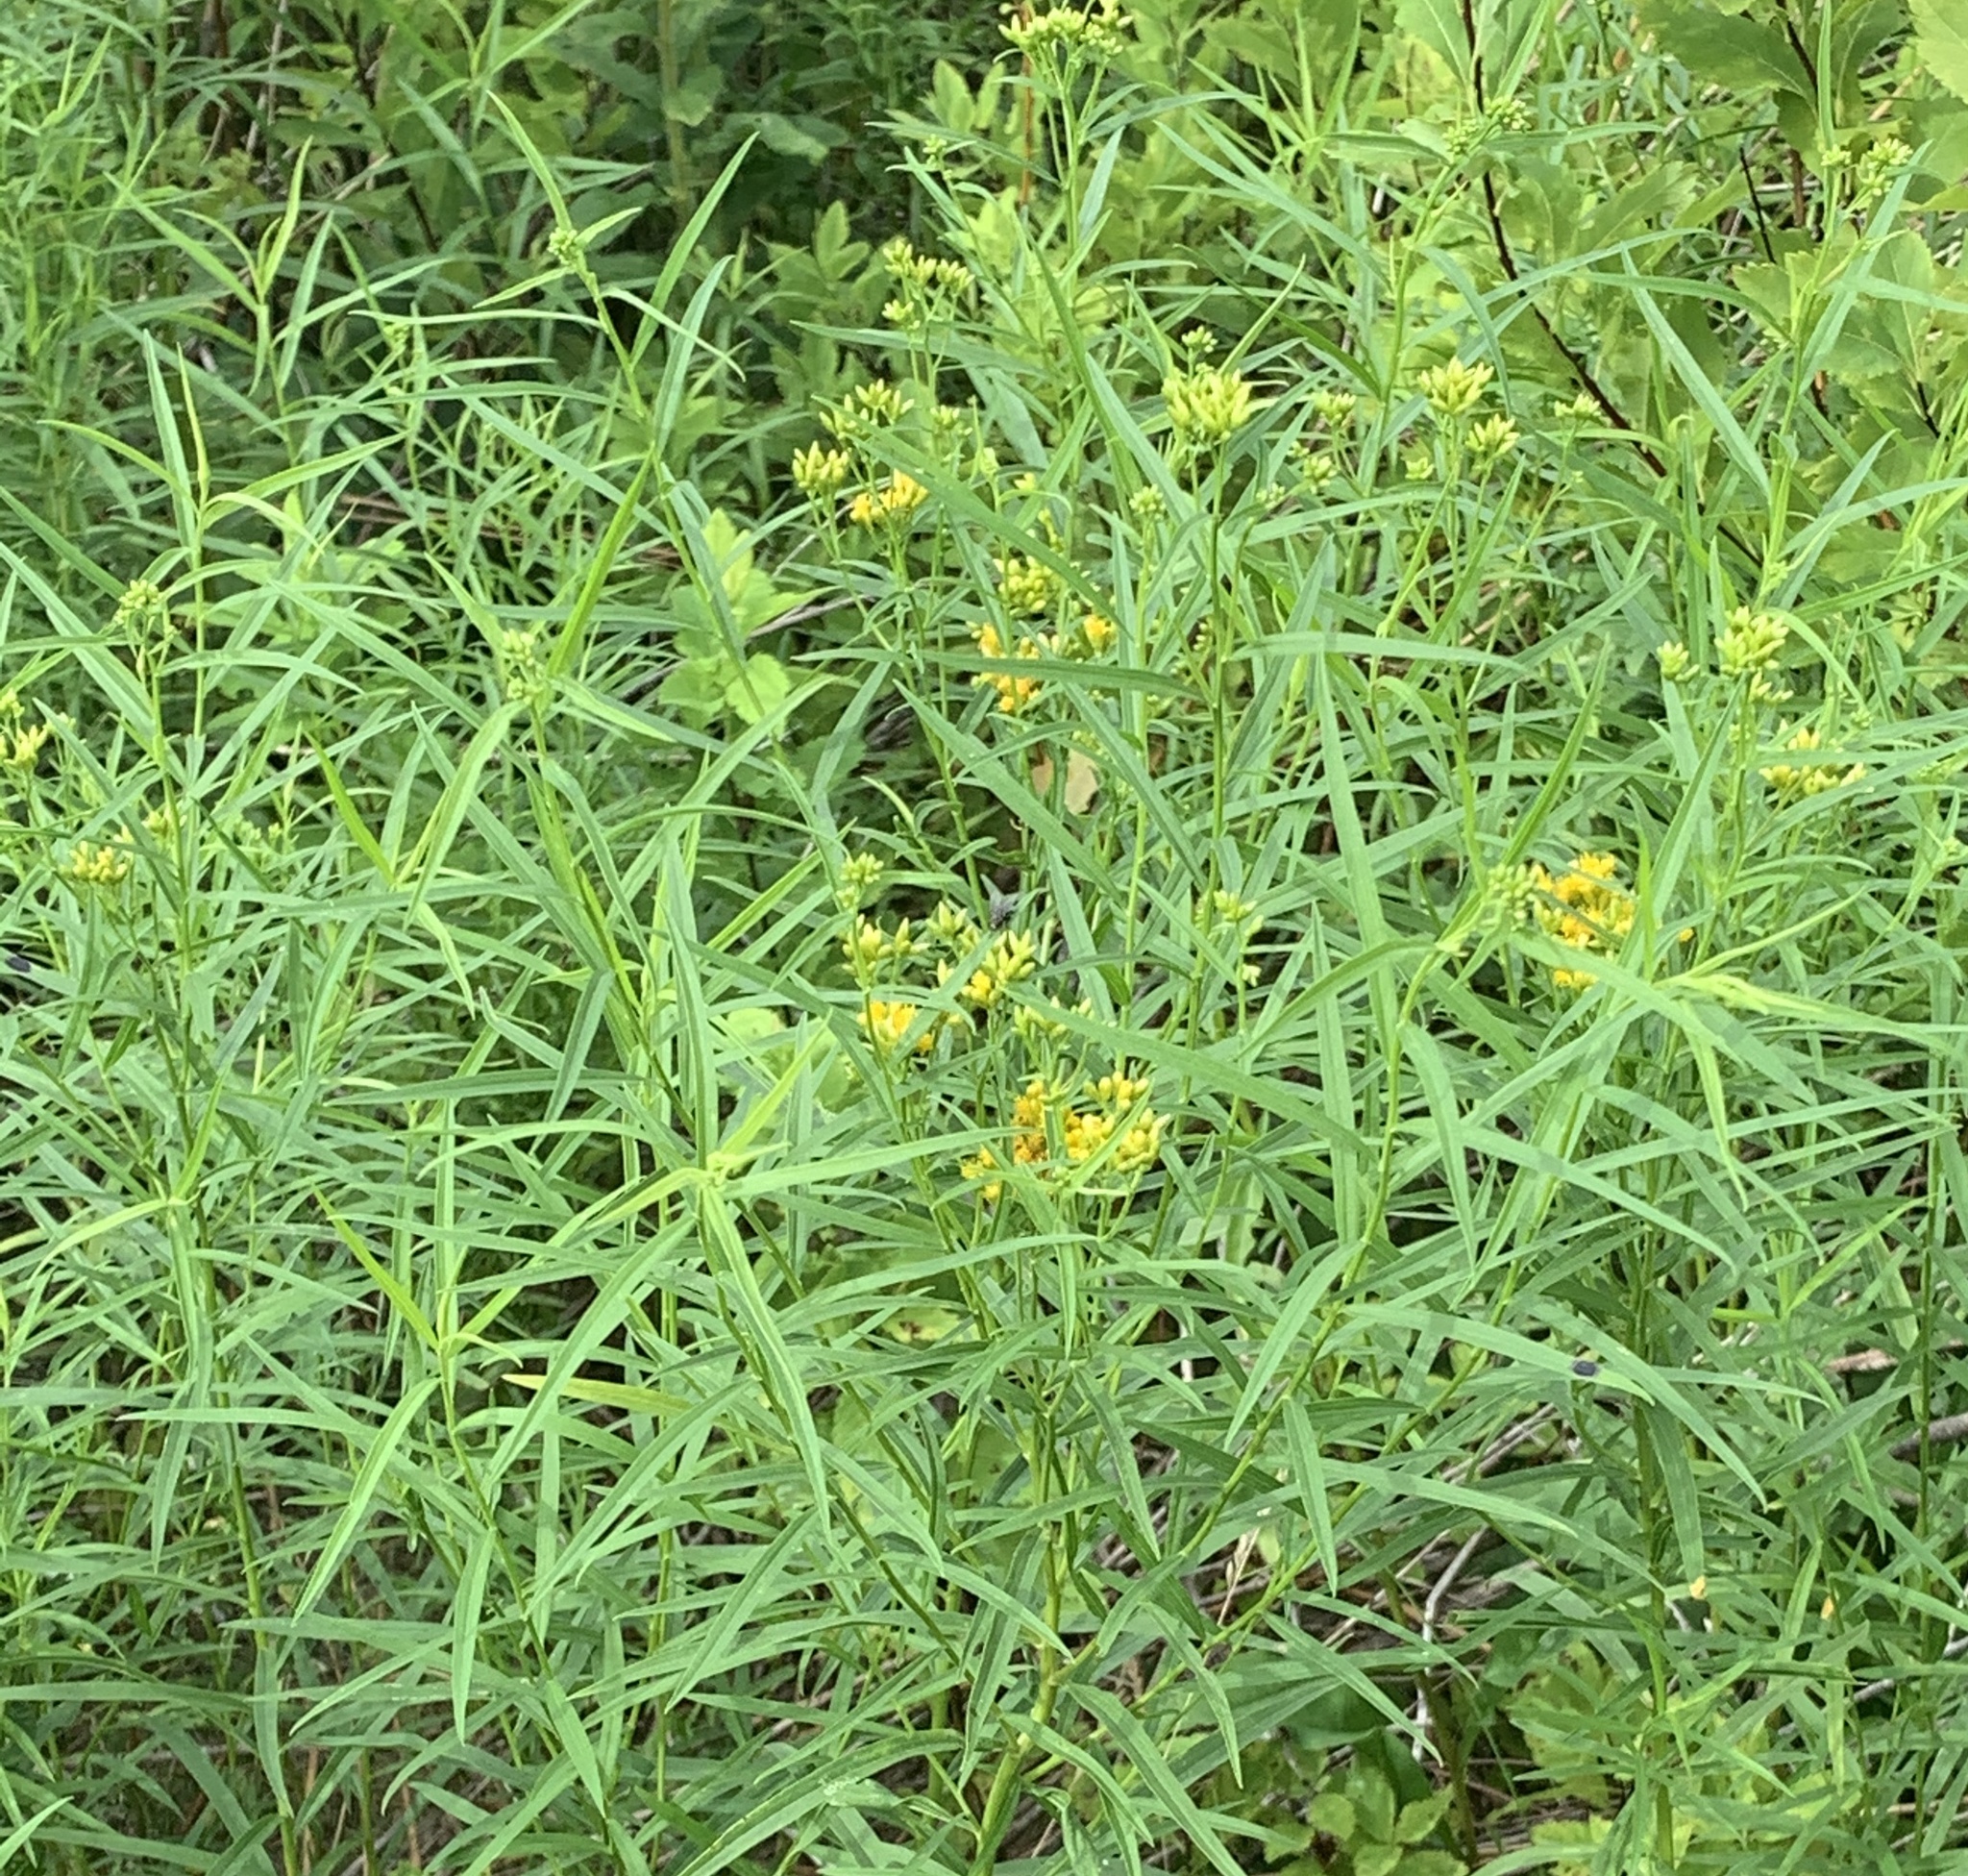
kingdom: Plantae
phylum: Tracheophyta
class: Magnoliopsida
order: Asterales
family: Asteraceae
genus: Euthamia
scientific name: Euthamia graminifolia
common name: Common goldentop
